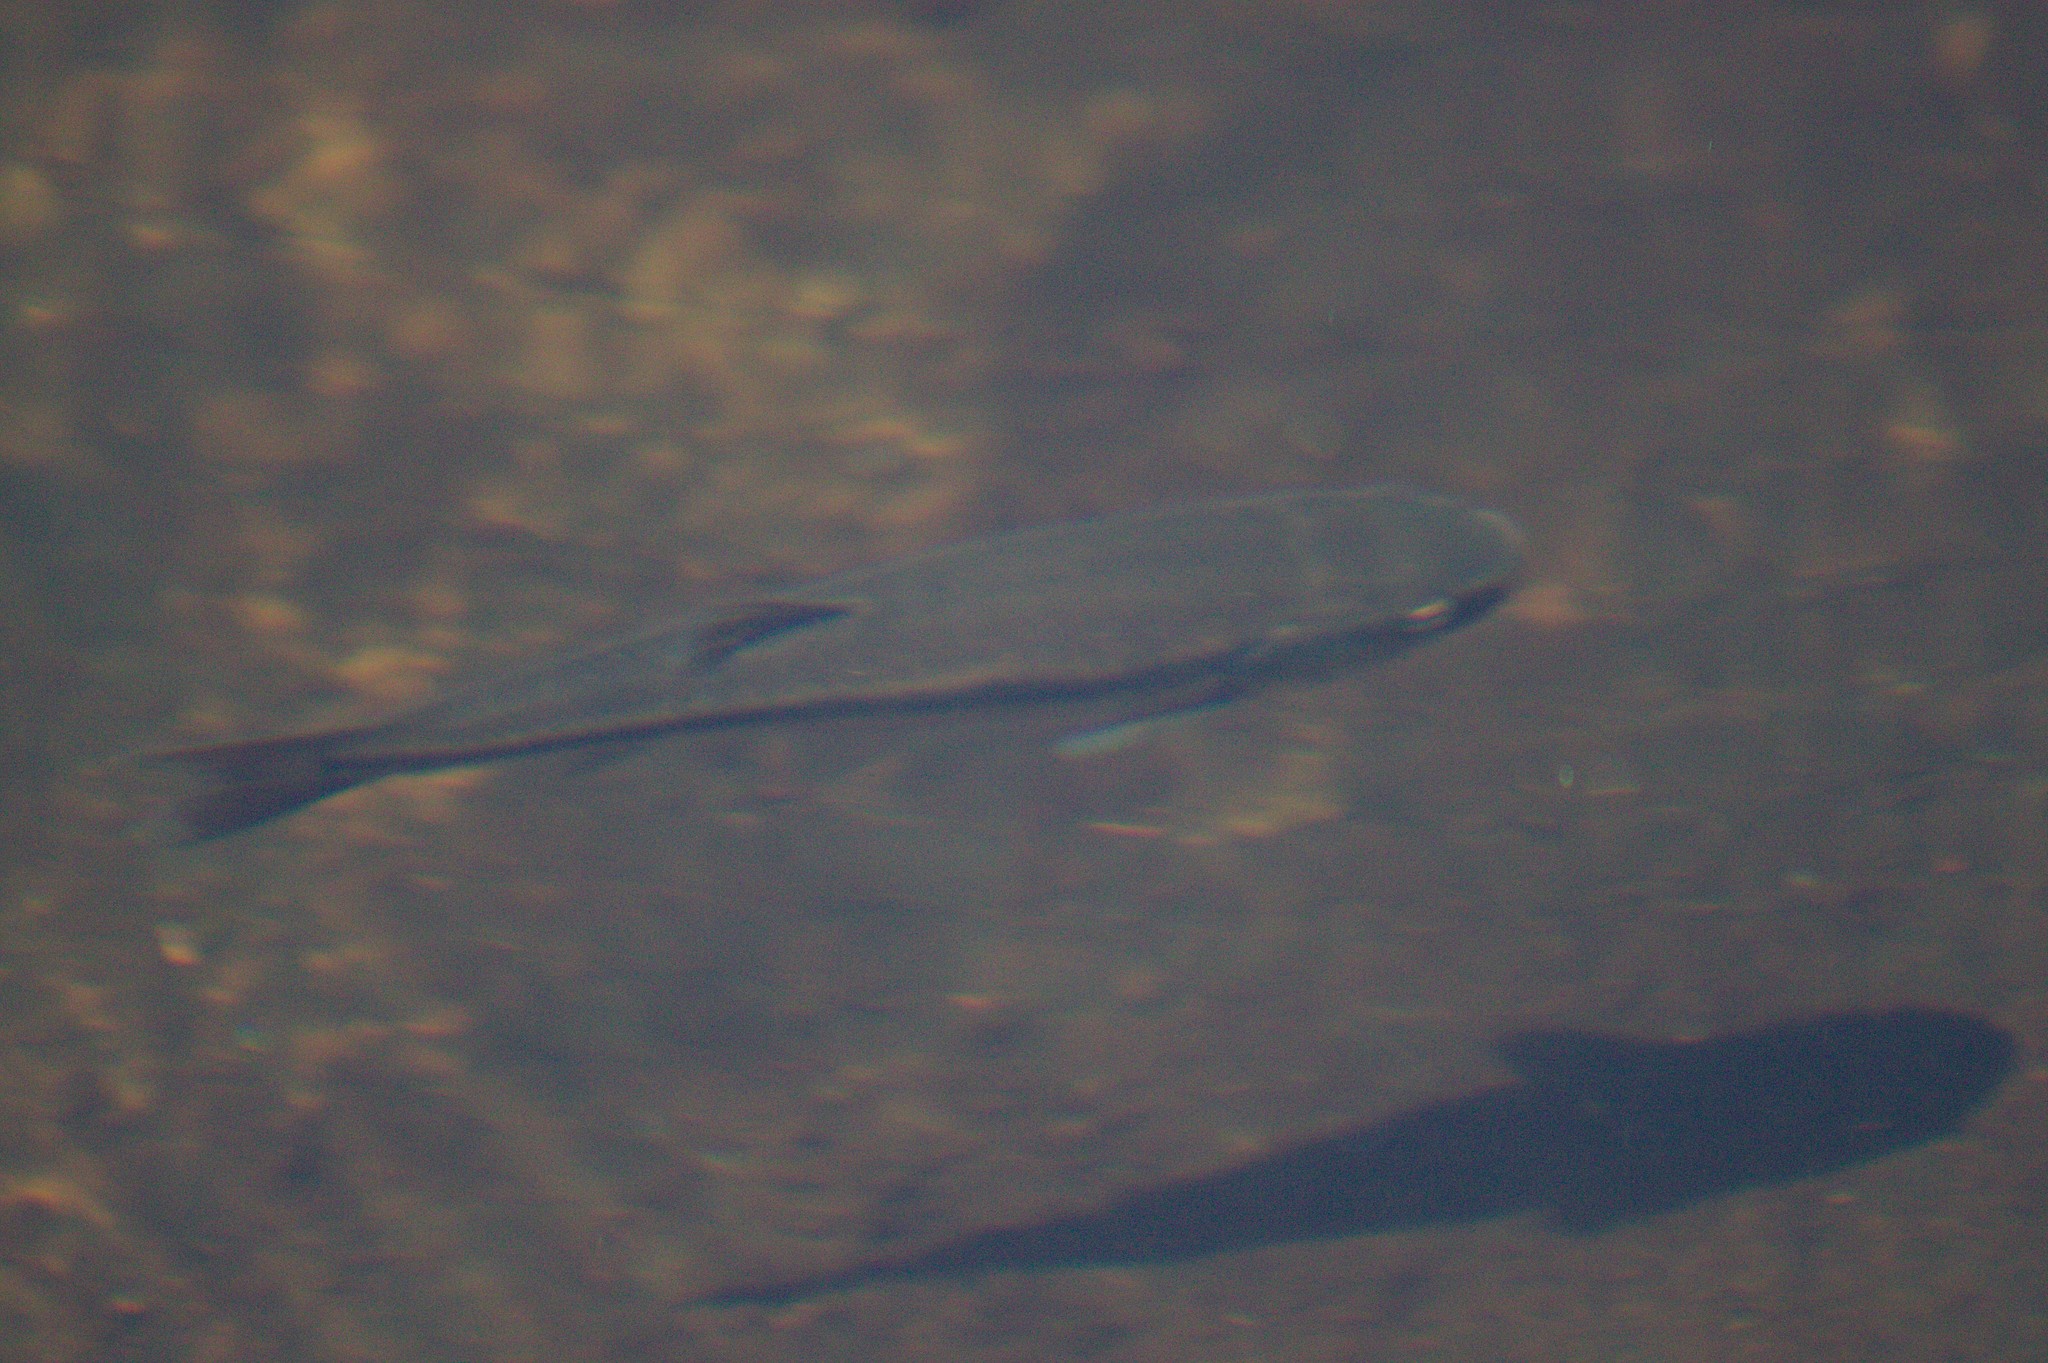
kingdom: Animalia
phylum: Chordata
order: Cypriniformes
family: Cyprinidae
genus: Semotilus
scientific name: Semotilus atromaculatus
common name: Creek chub
